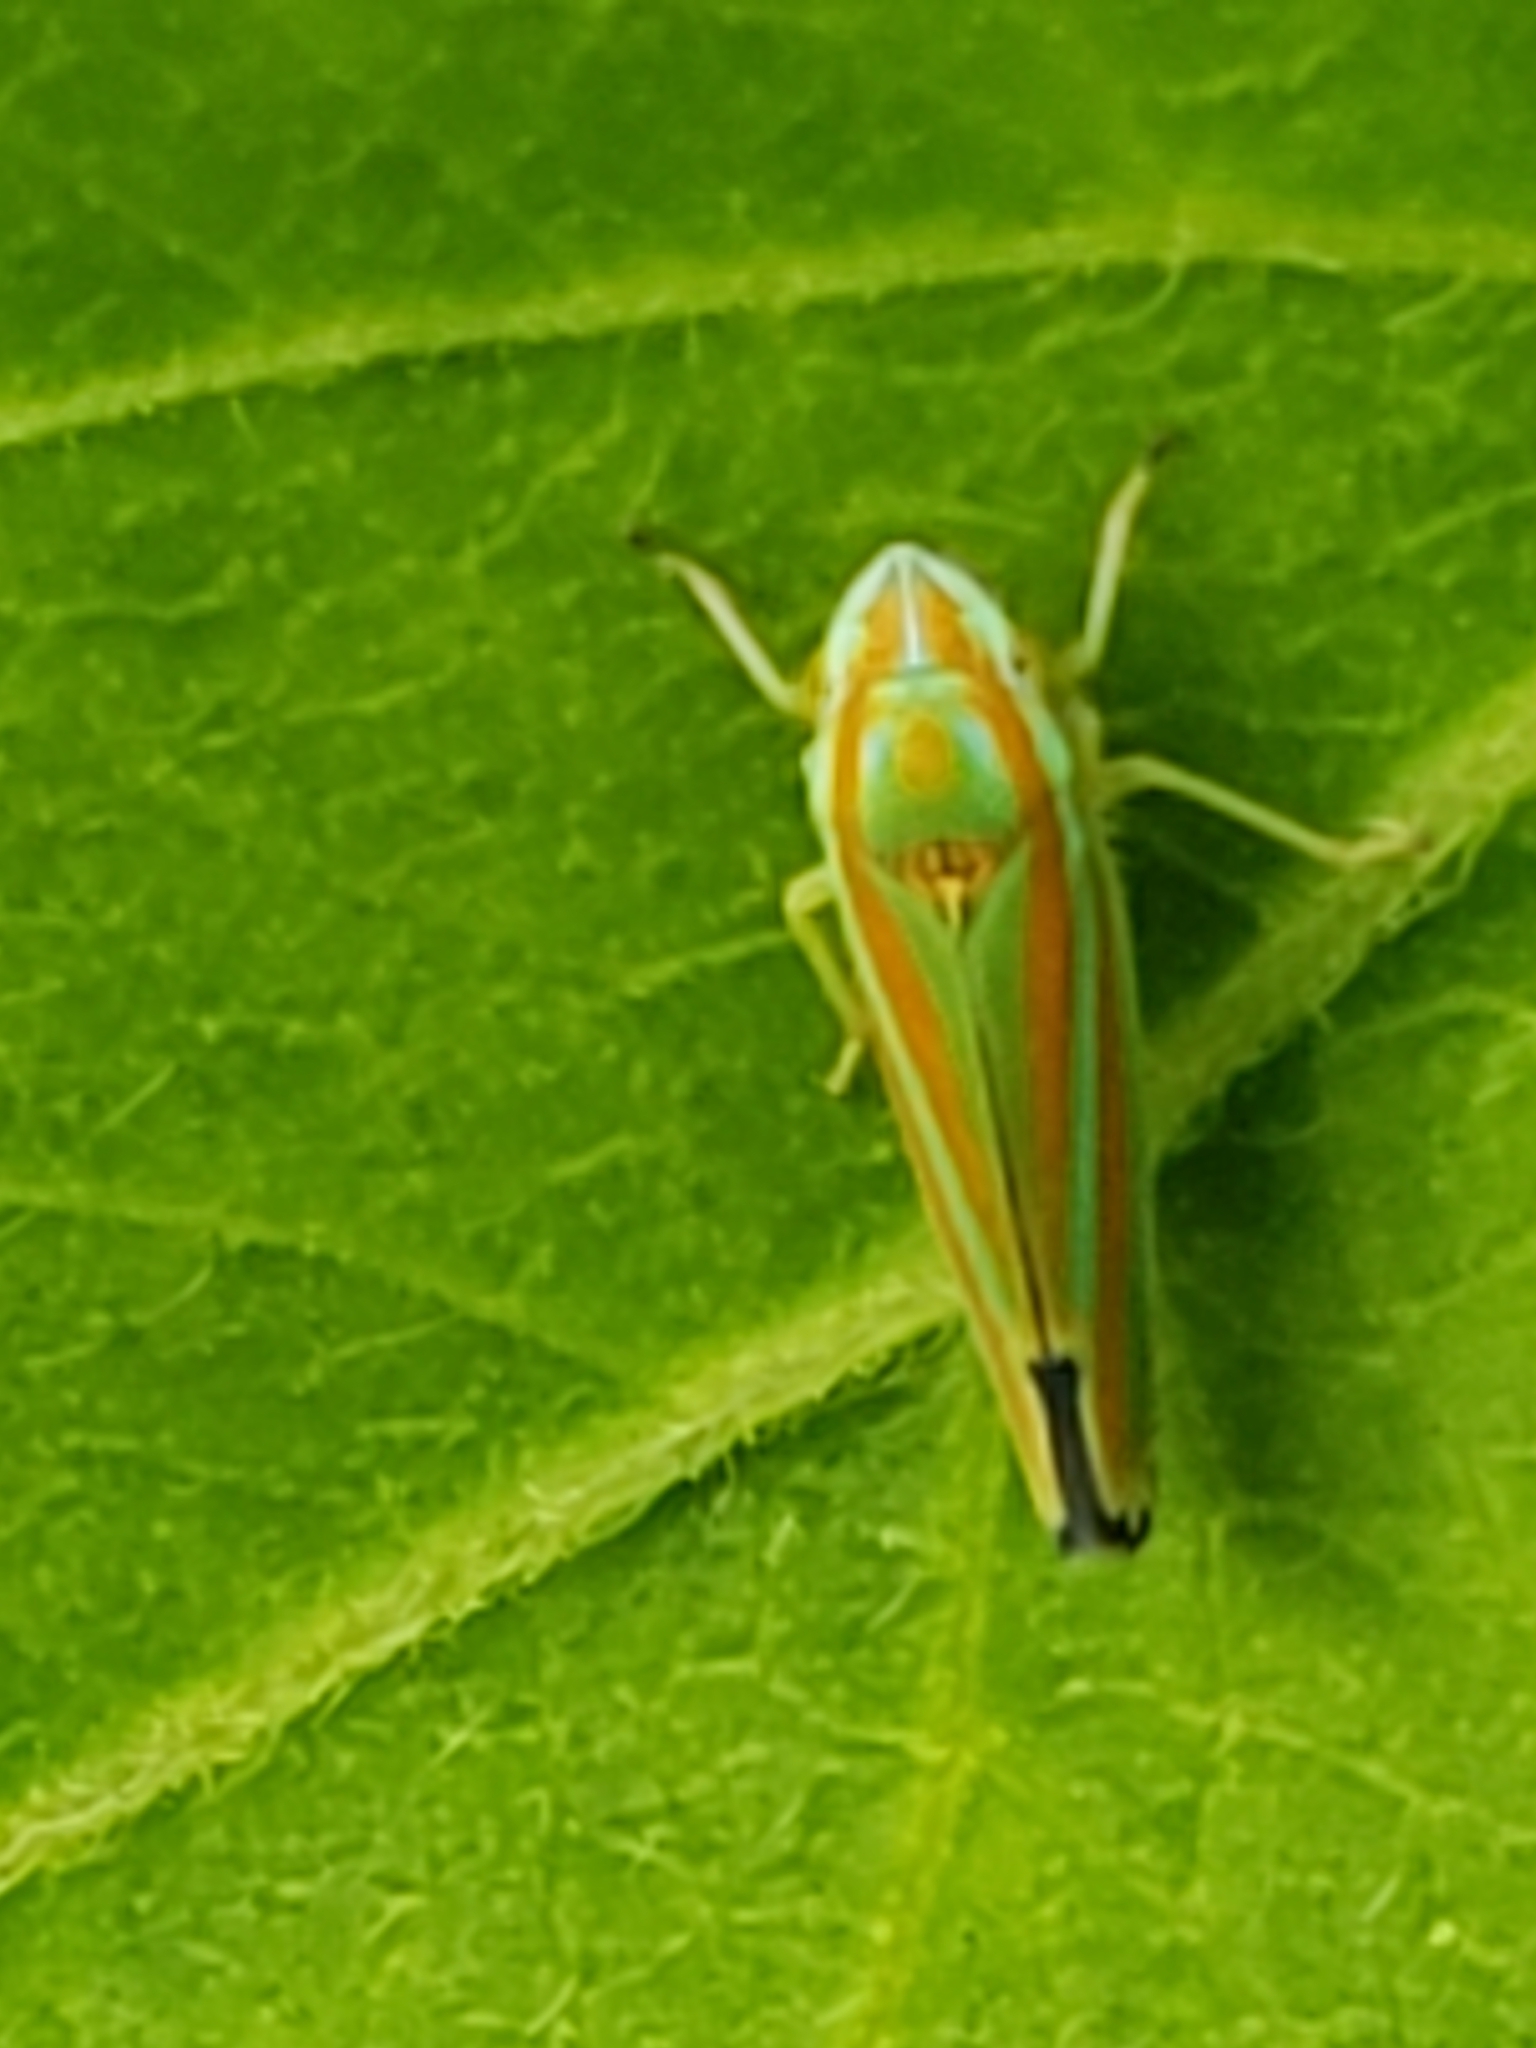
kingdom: Animalia
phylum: Arthropoda
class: Insecta
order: Hemiptera
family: Cicadellidae
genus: Graphocephala
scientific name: Graphocephala versuta
